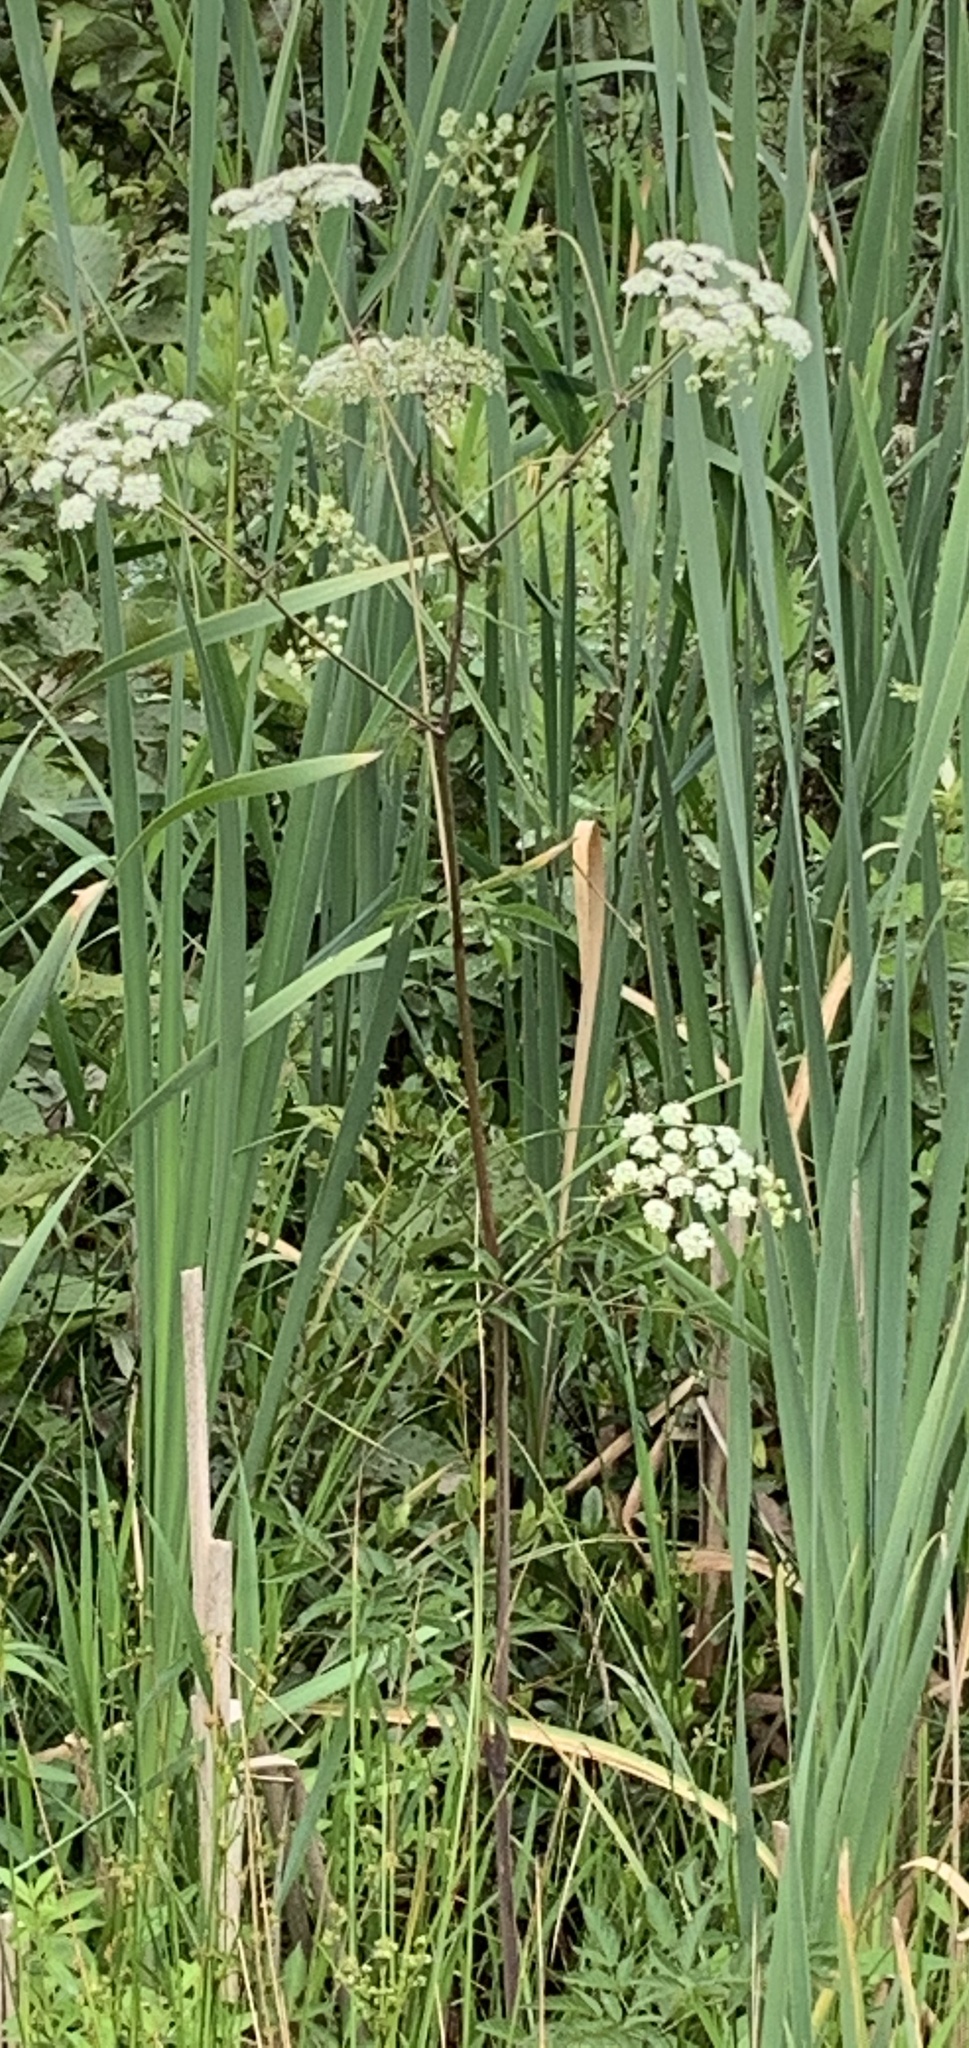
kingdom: Plantae
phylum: Tracheophyta
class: Magnoliopsida
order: Apiales
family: Apiaceae
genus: Cicuta
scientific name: Cicuta maculata
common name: Spotted cowbane
